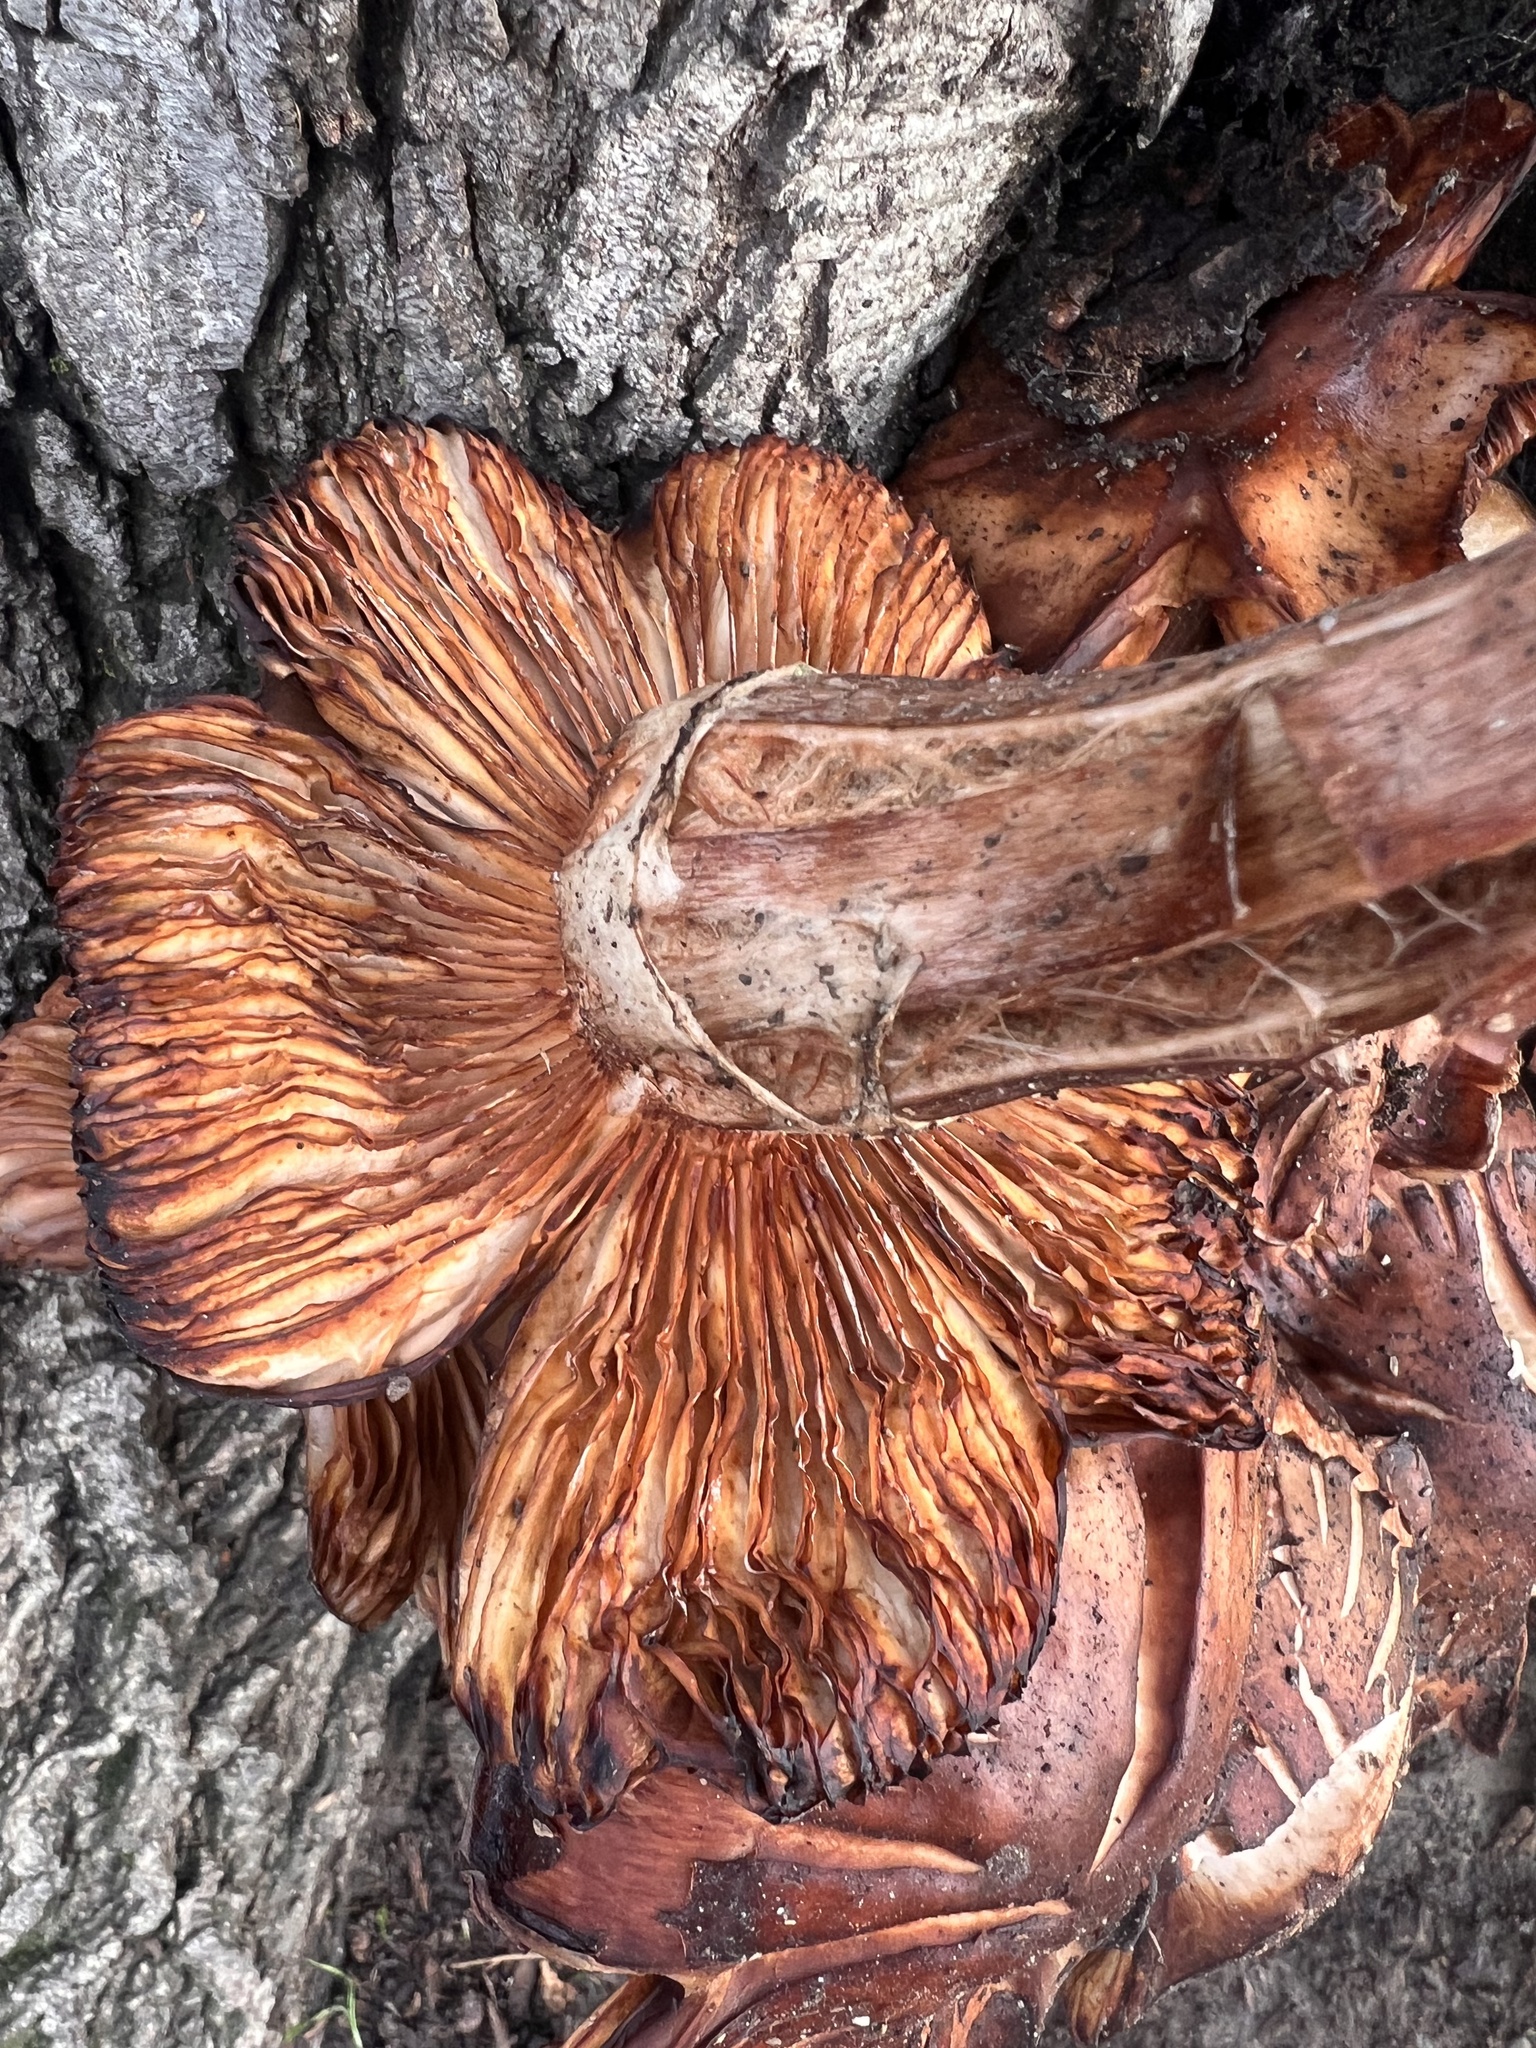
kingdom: Fungi
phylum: Basidiomycota
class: Agaricomycetes
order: Agaricales
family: Physalacriaceae
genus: Armillaria
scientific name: Armillaria mellea
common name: Honey fungus
